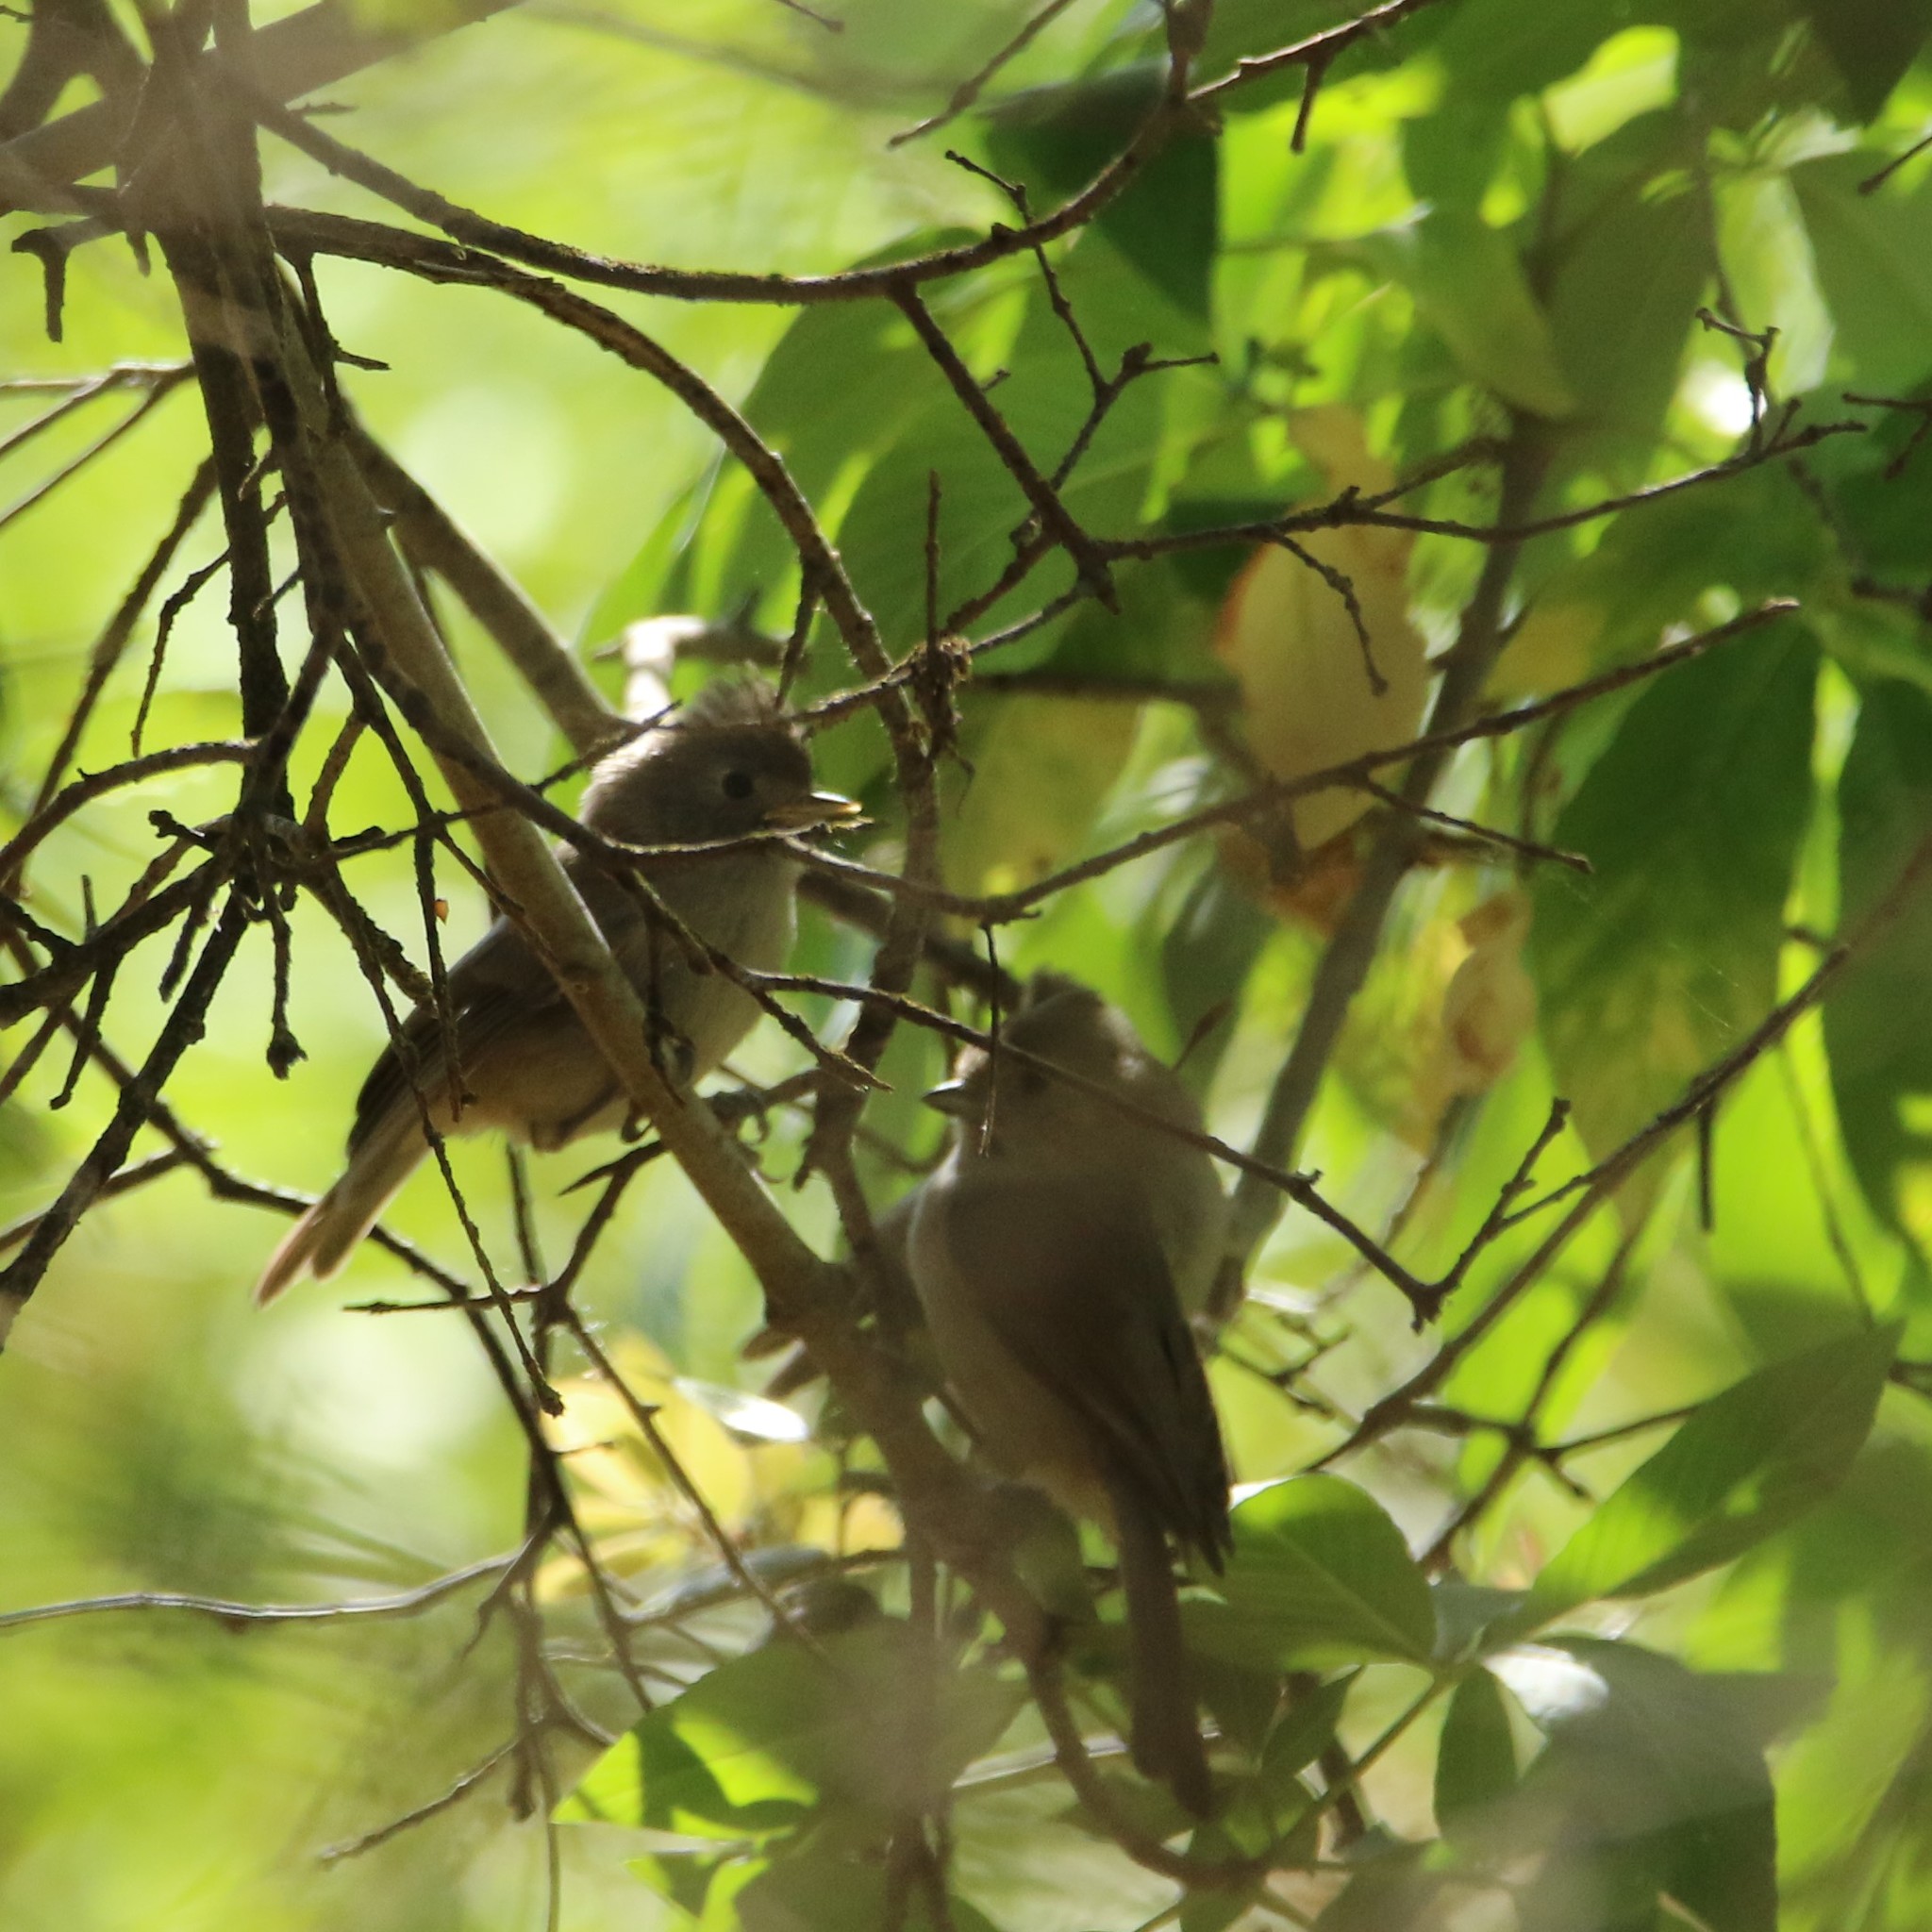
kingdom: Animalia
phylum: Chordata
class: Aves
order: Passeriformes
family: Paridae
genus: Baeolophus
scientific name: Baeolophus inornatus
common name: Oak titmouse
